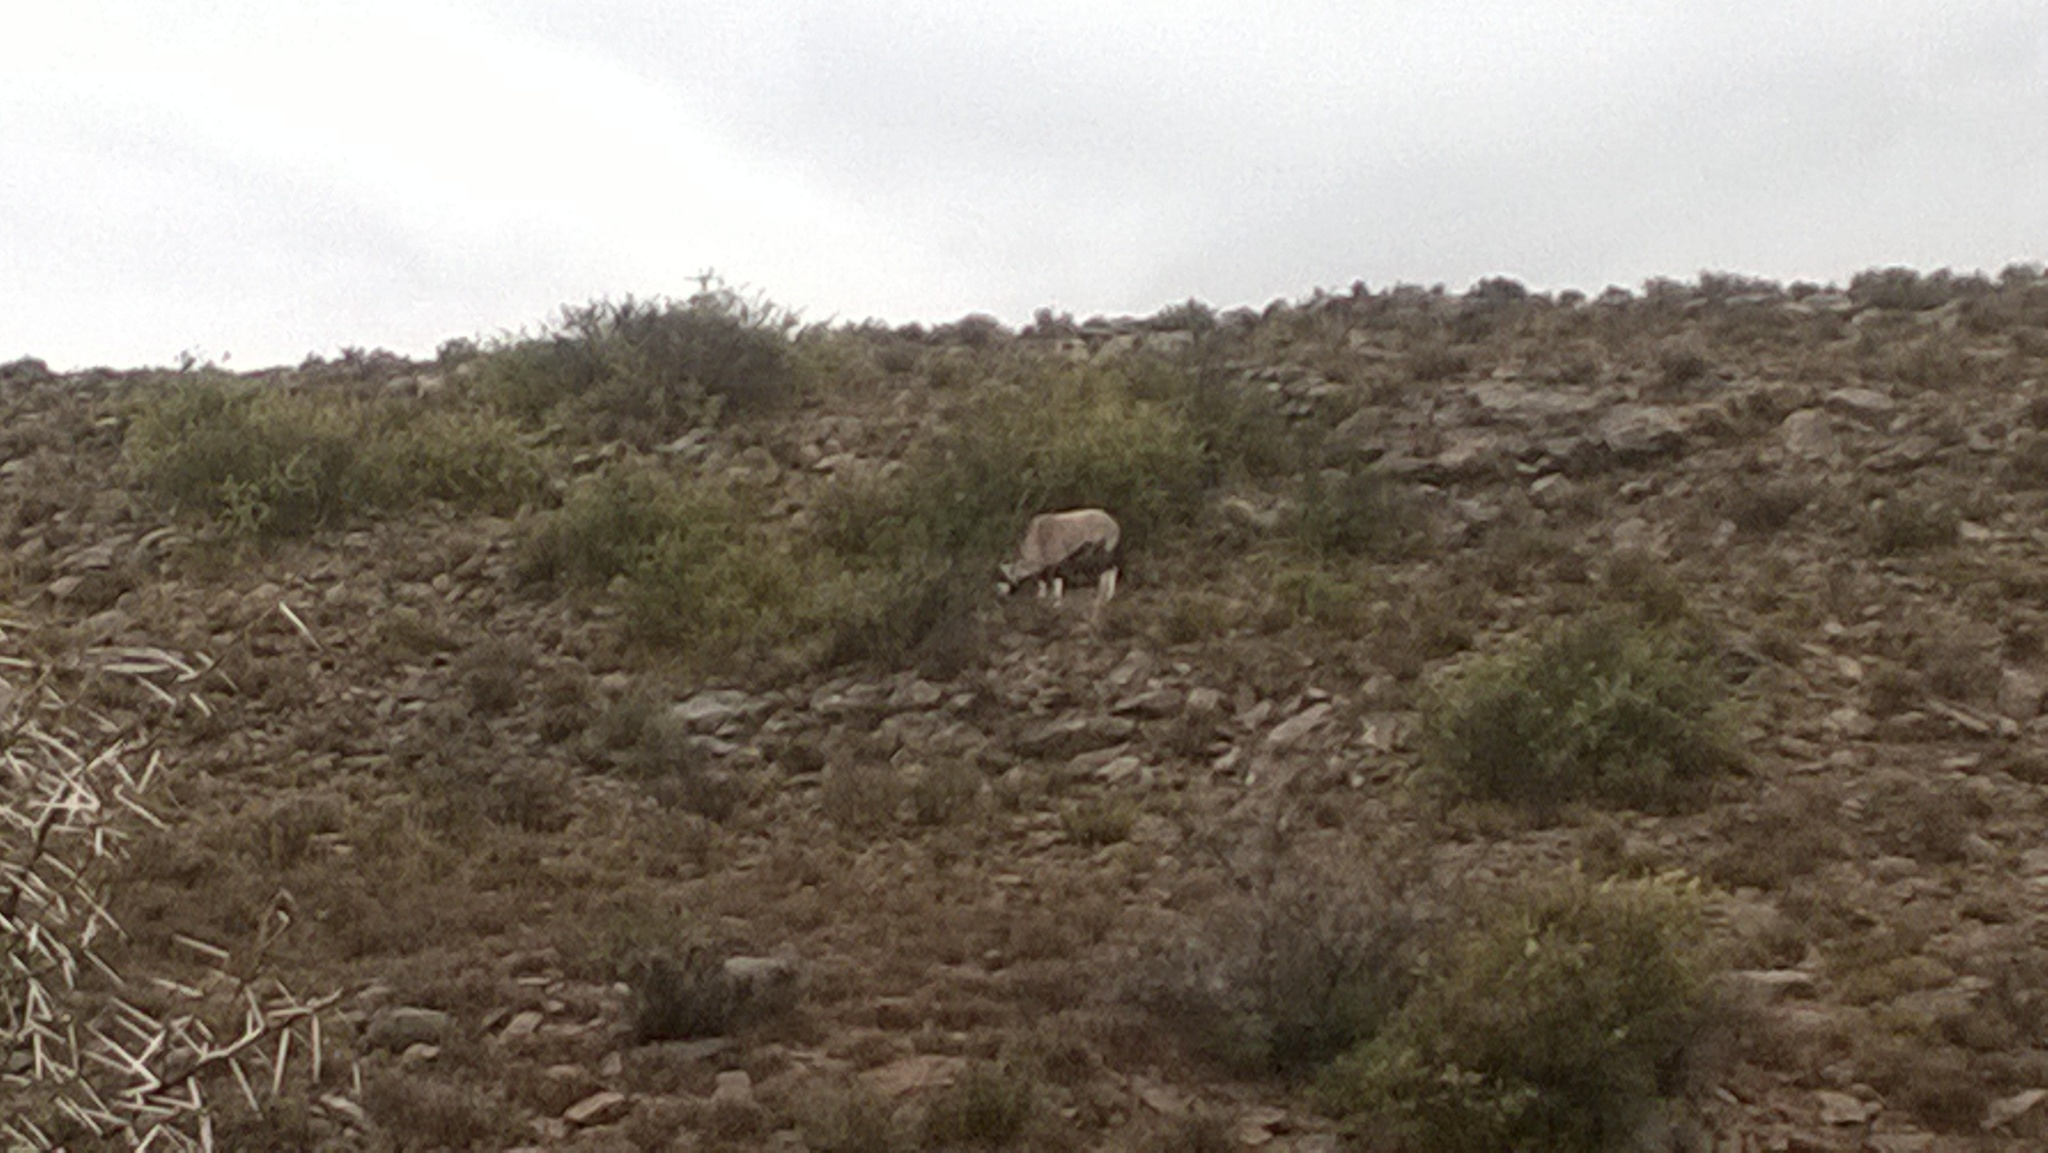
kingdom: Animalia
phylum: Chordata
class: Mammalia
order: Artiodactyla
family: Bovidae
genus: Oryx
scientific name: Oryx gazella
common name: Gemsbok
